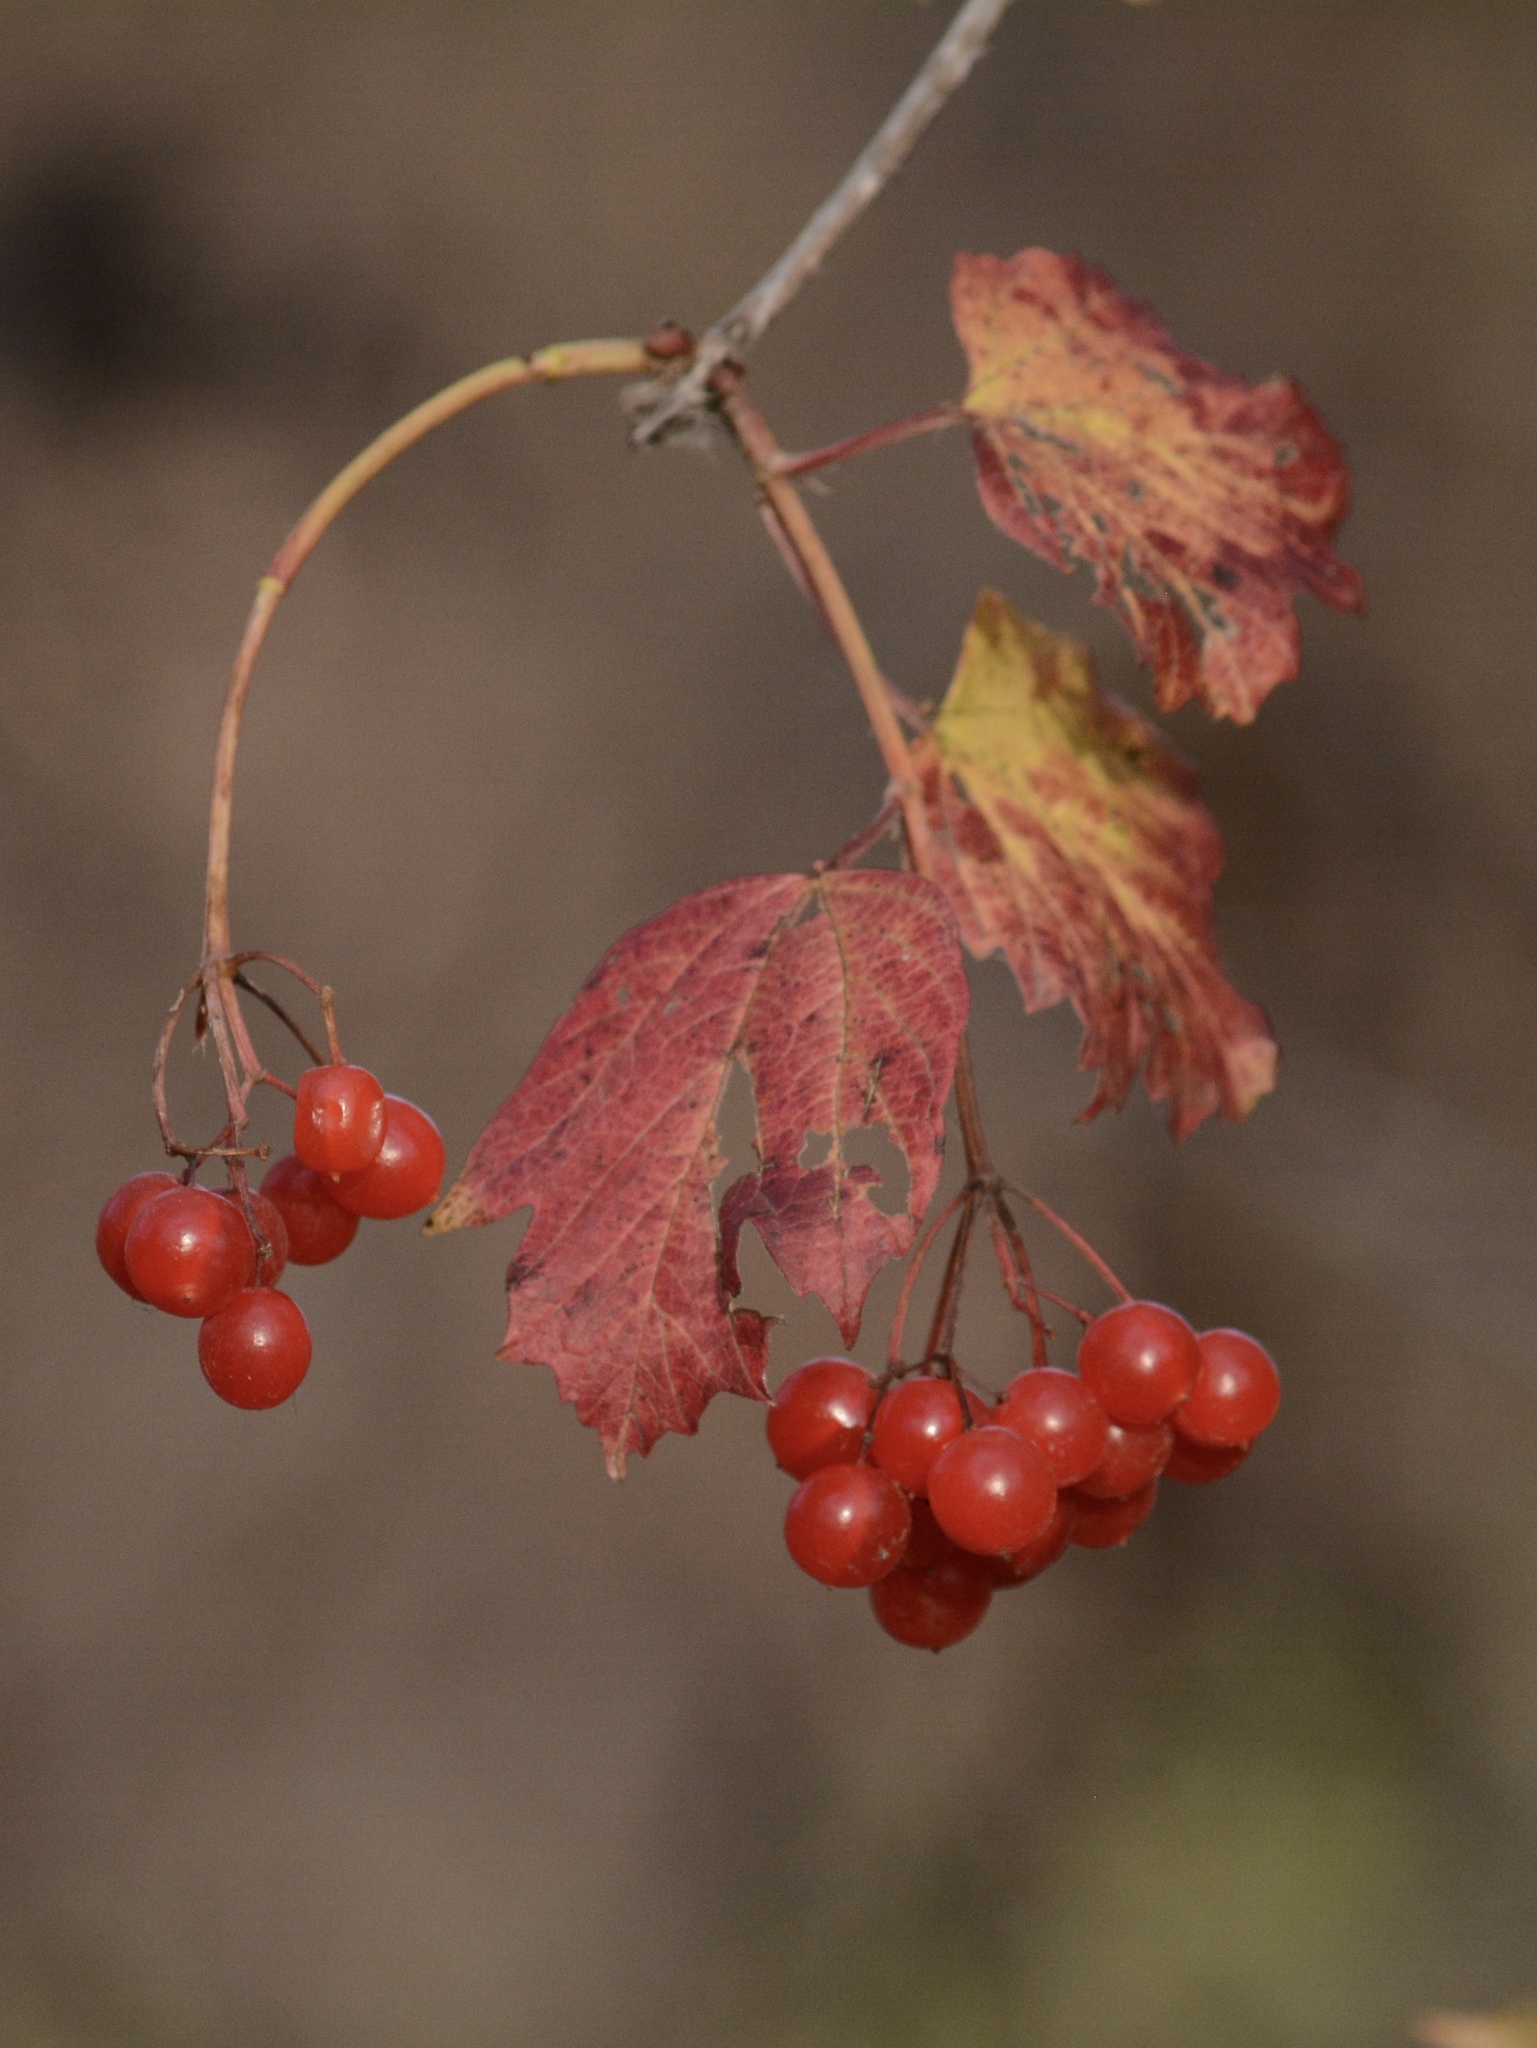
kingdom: Plantae
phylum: Tracheophyta
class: Magnoliopsida
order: Dipsacales
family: Viburnaceae
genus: Viburnum
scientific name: Viburnum trilobum
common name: American cranberrybush
